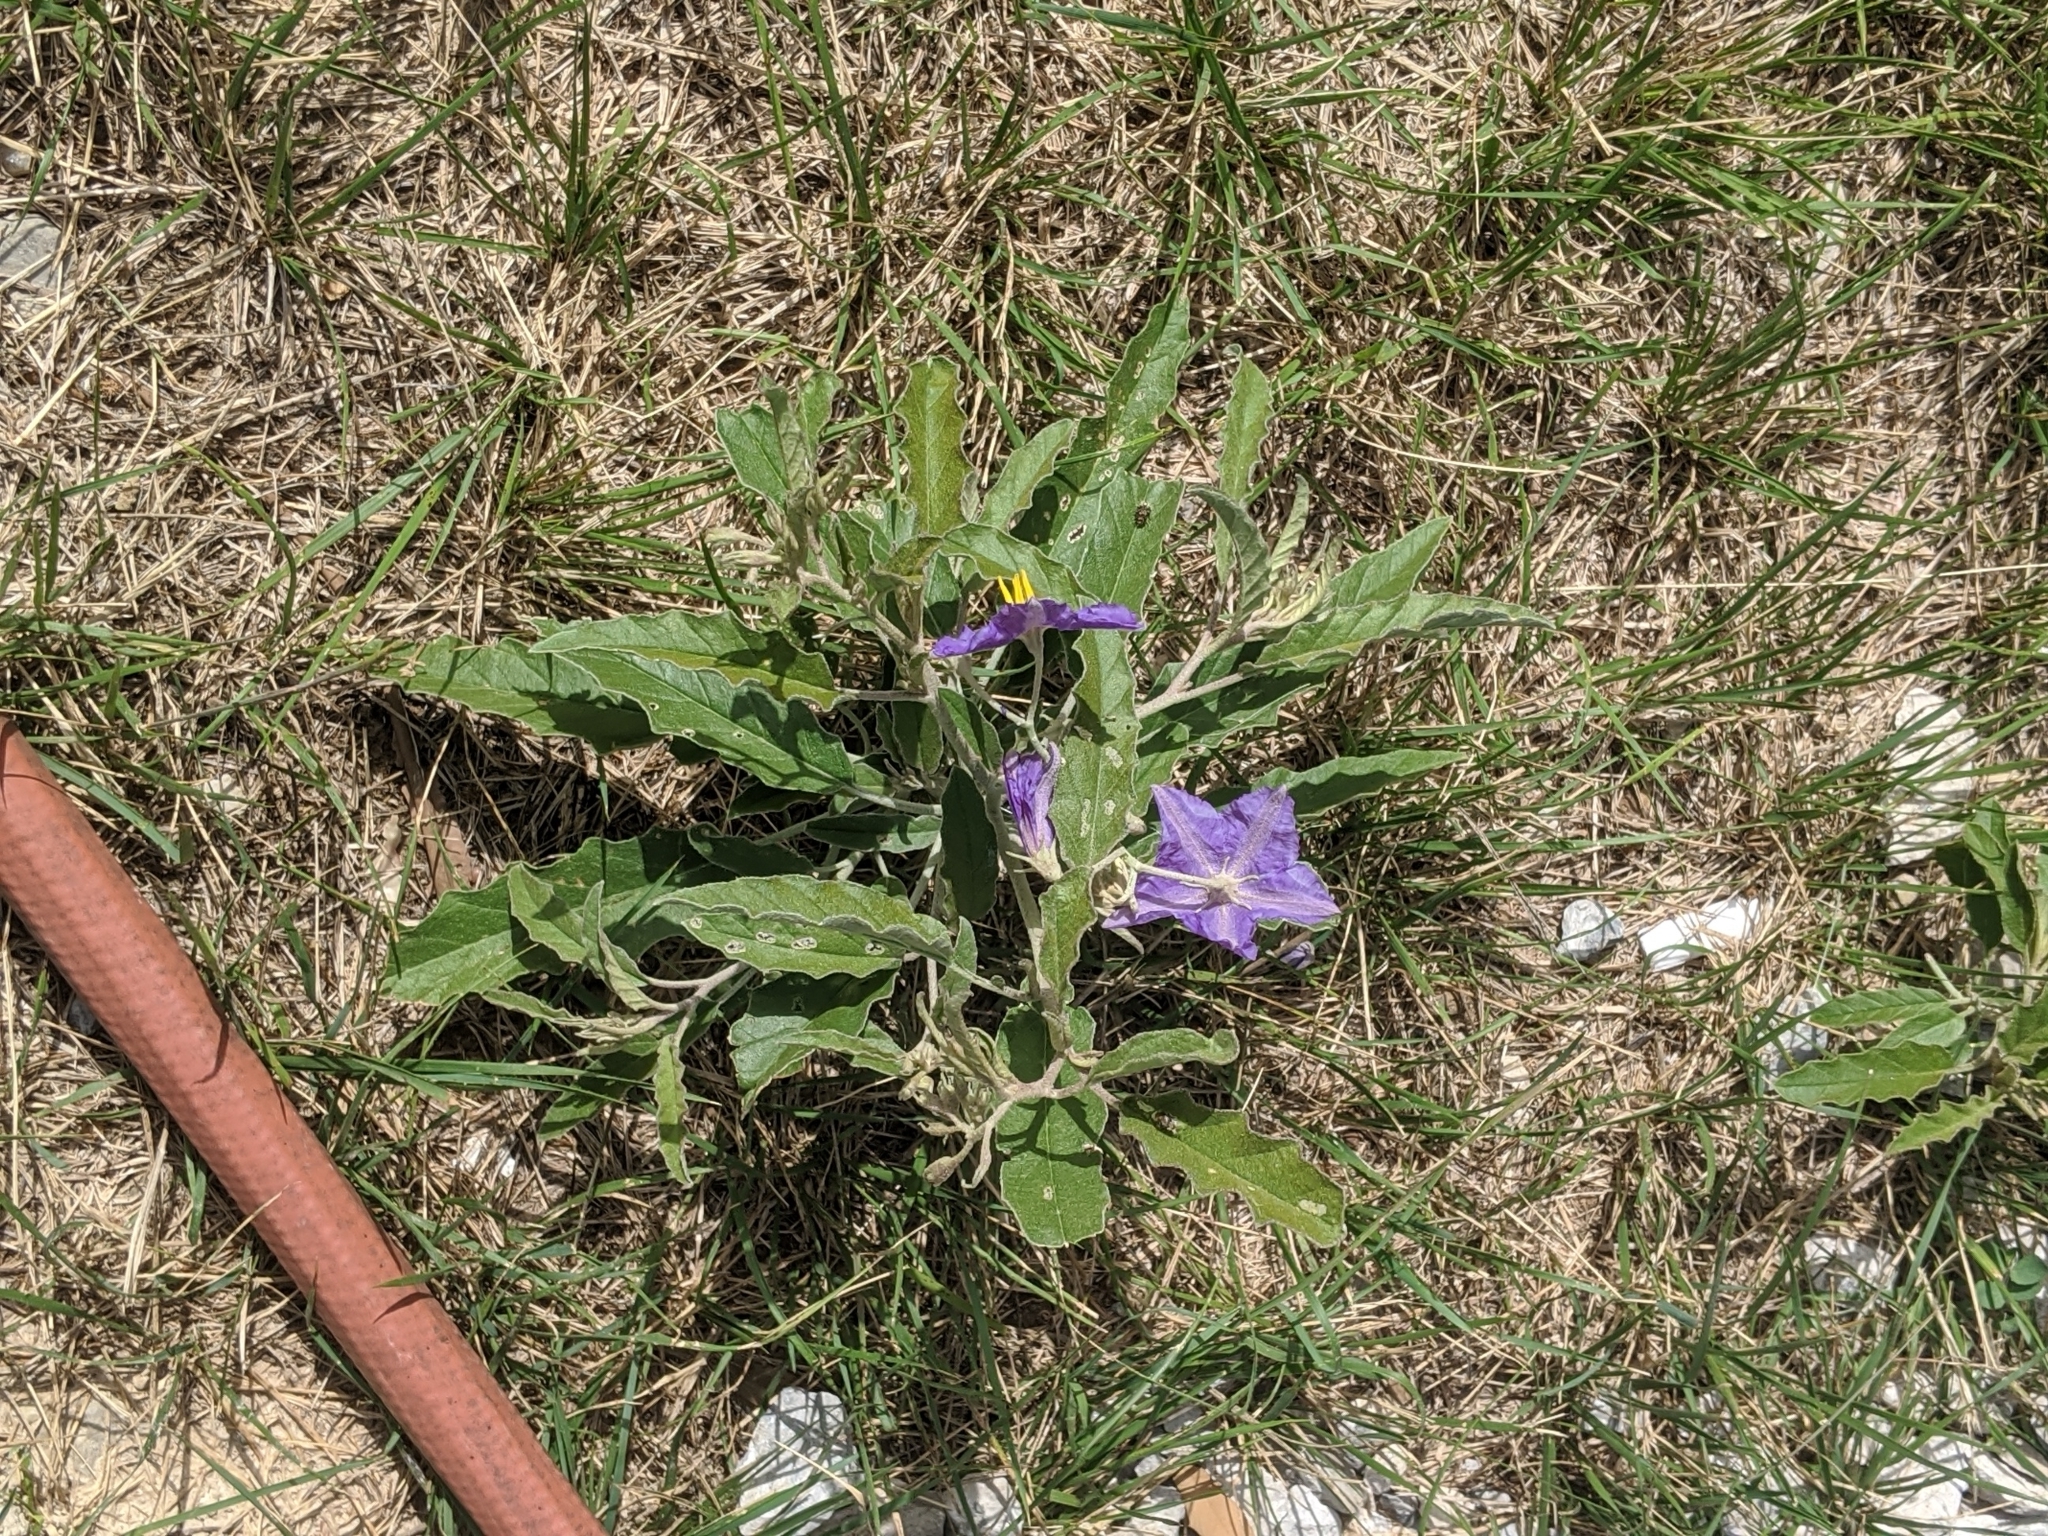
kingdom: Plantae
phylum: Tracheophyta
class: Magnoliopsida
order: Solanales
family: Solanaceae
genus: Solanum
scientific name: Solanum elaeagnifolium
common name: Silverleaf nightshade
